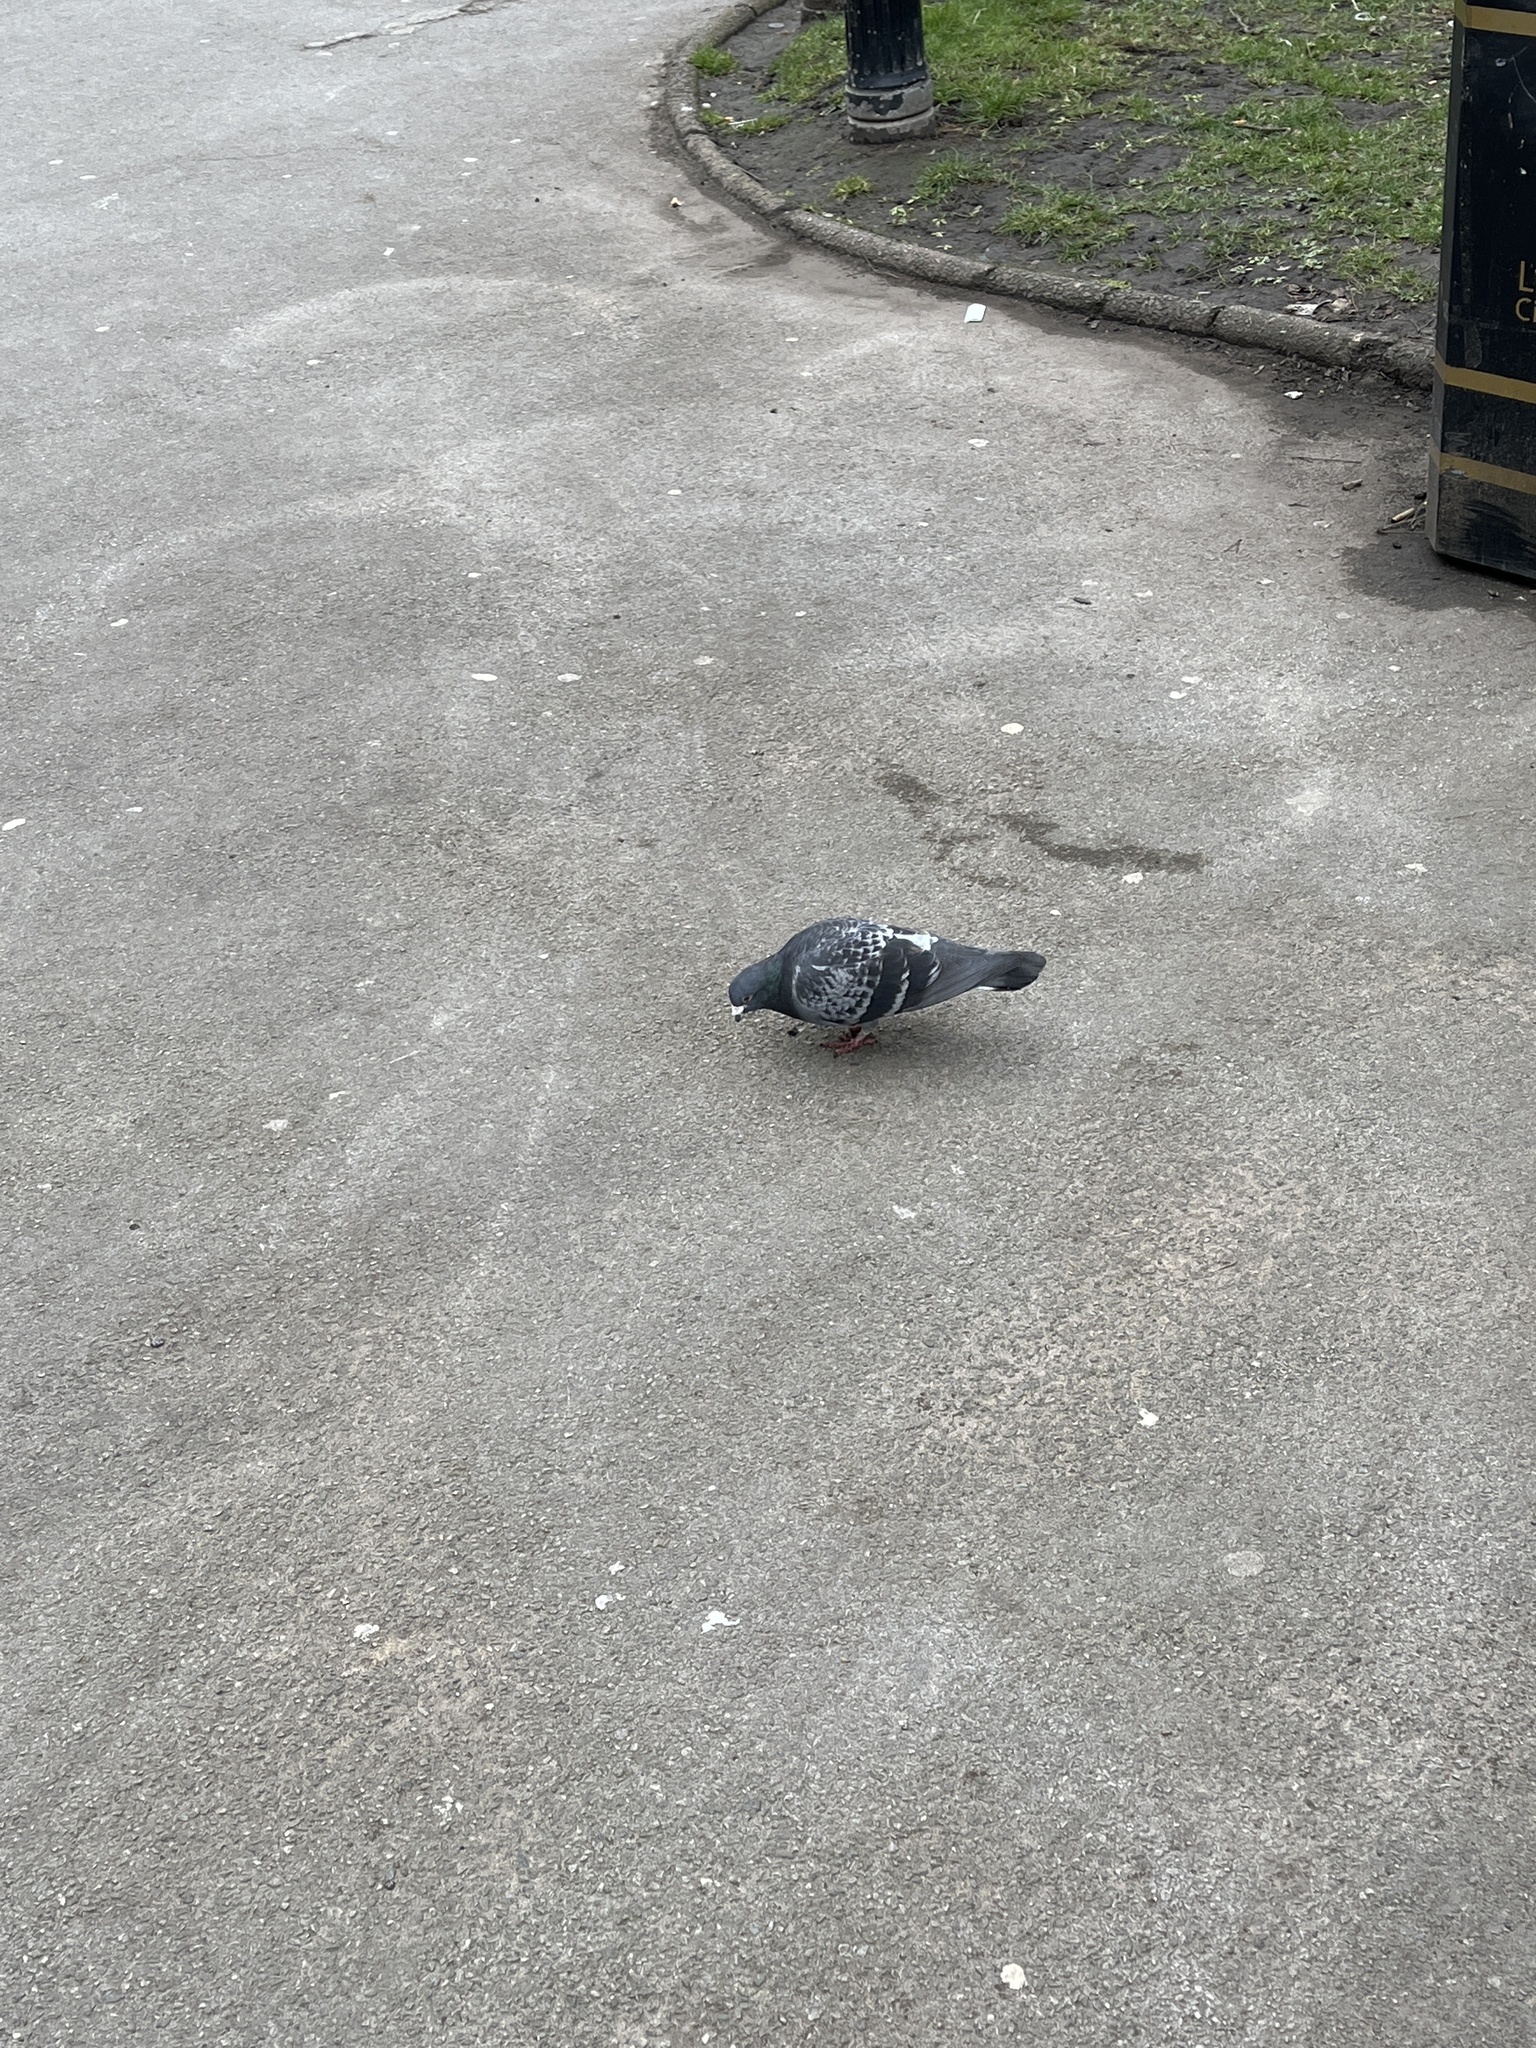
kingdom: Animalia
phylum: Chordata
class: Aves
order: Columbiformes
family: Columbidae
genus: Columba
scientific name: Columba livia
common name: Rock pigeon
